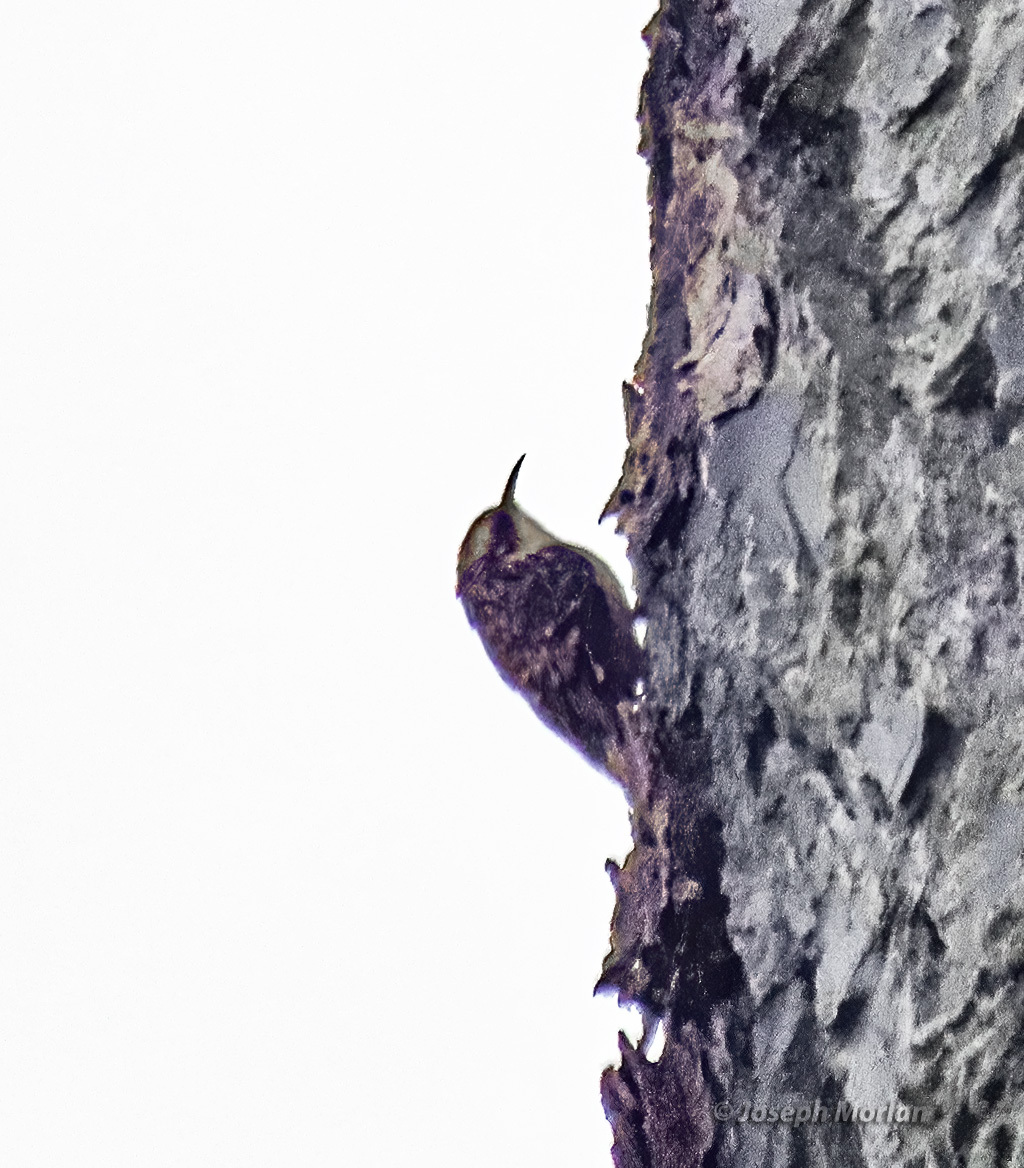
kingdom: Animalia
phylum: Chordata
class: Aves
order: Passeriformes
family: Certhiidae
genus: Certhia
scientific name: Certhia americana
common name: Brown creeper
